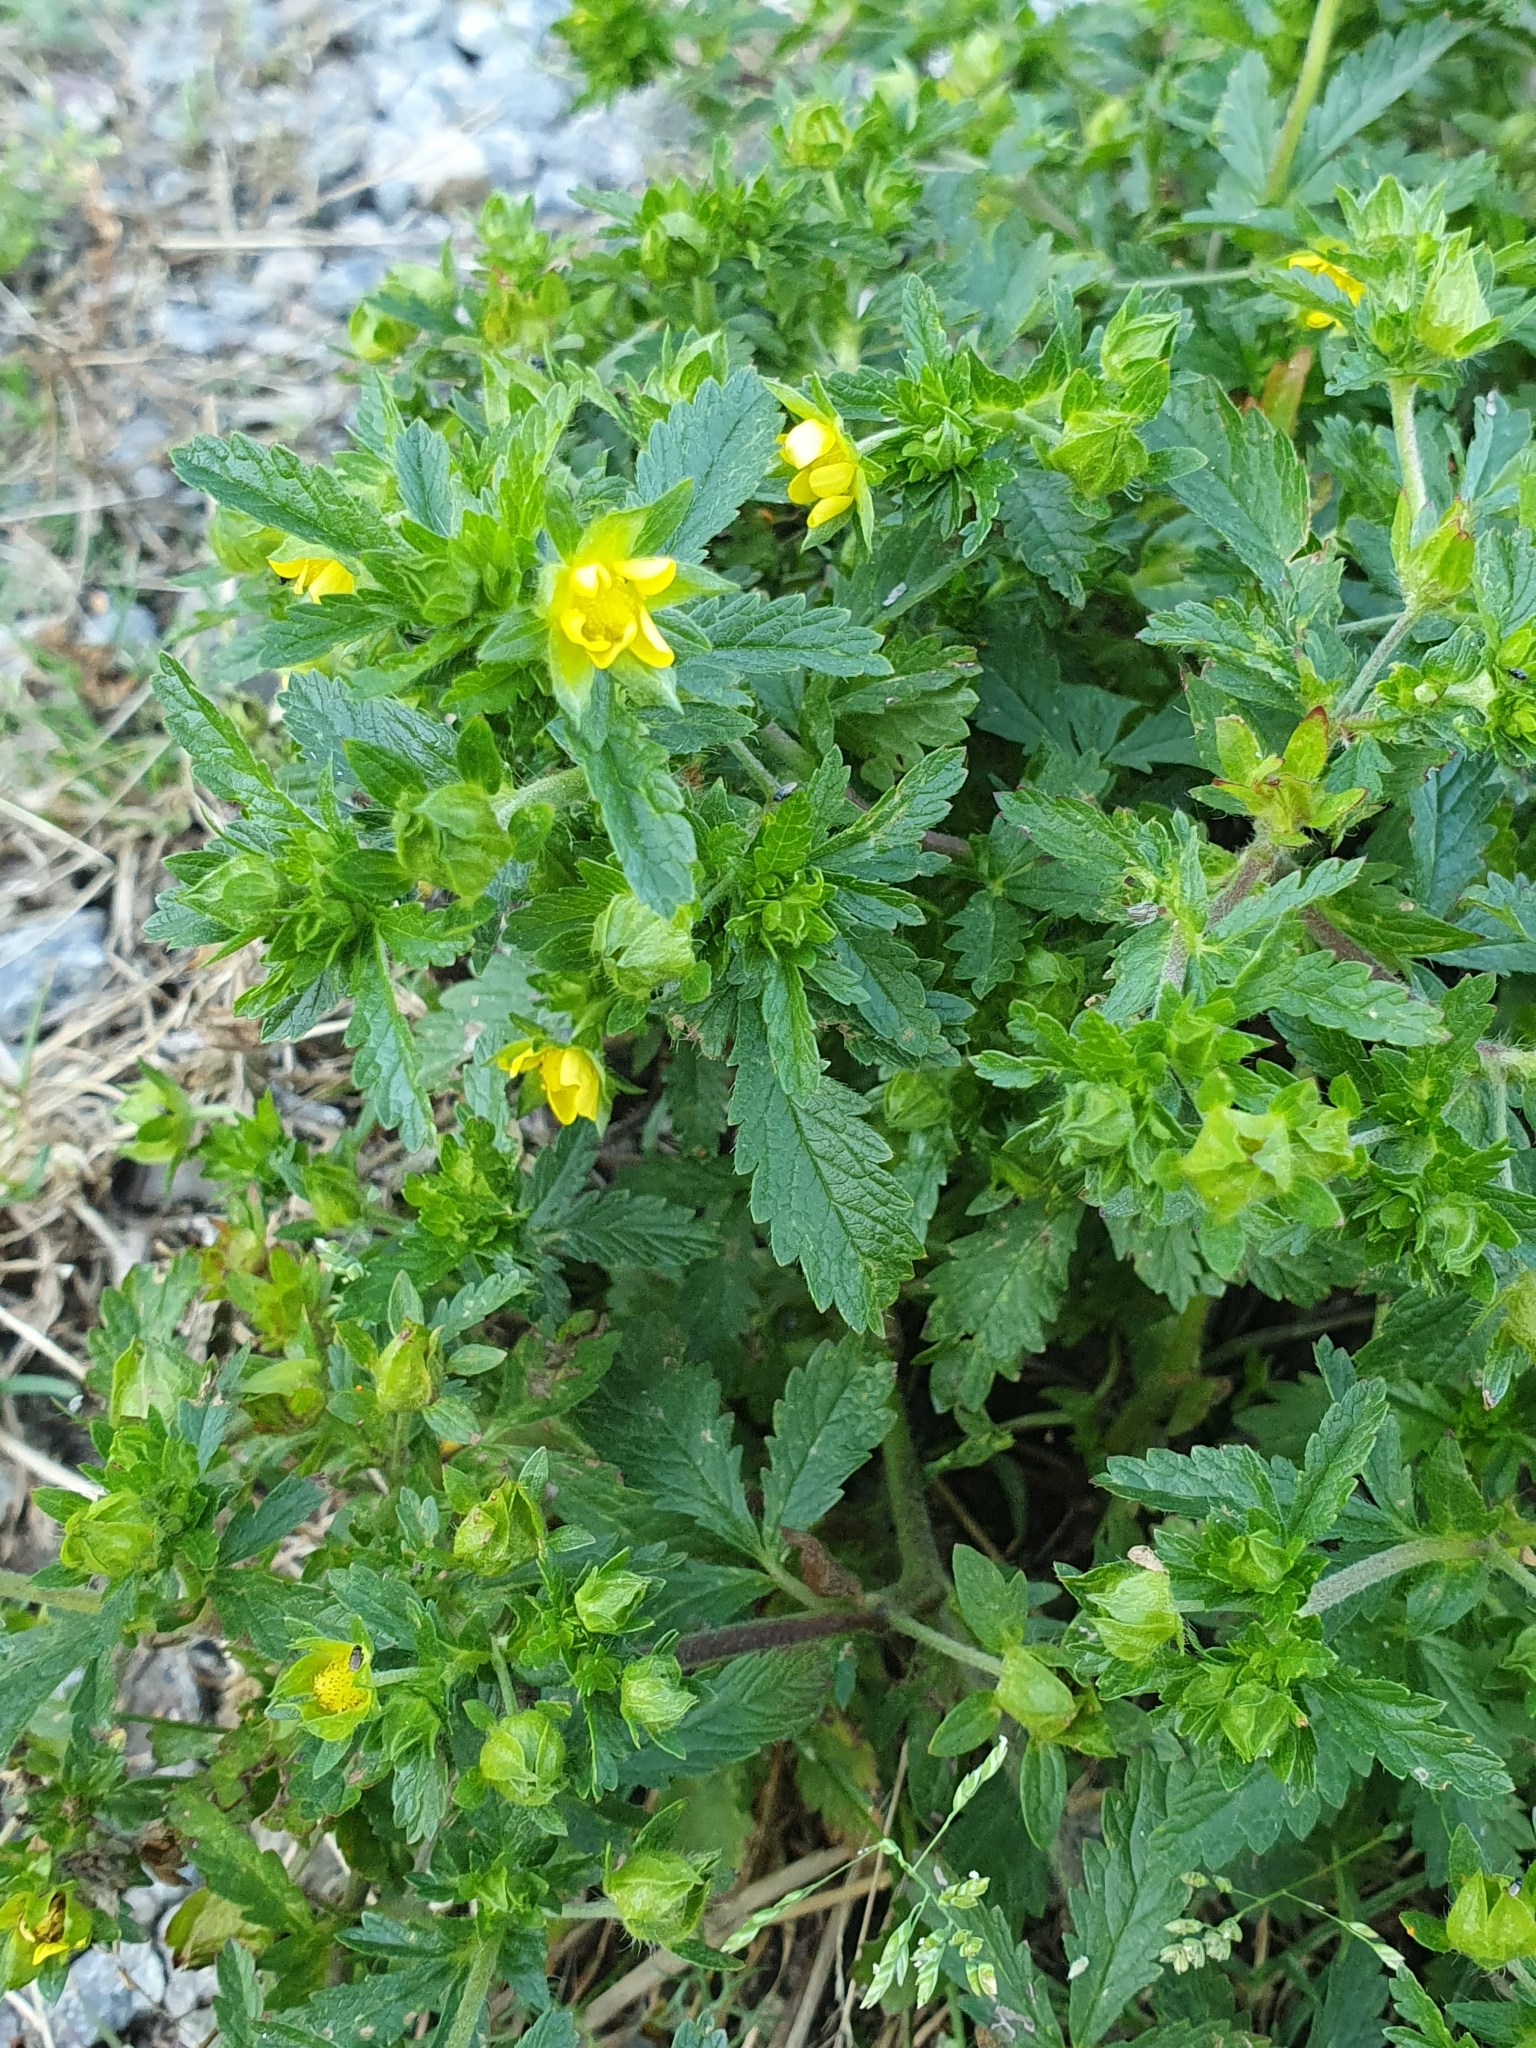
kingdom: Plantae
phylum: Tracheophyta
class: Magnoliopsida
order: Rosales
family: Rosaceae
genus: Potentilla
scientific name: Potentilla norvegica
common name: Ternate-leaved cinquefoil
